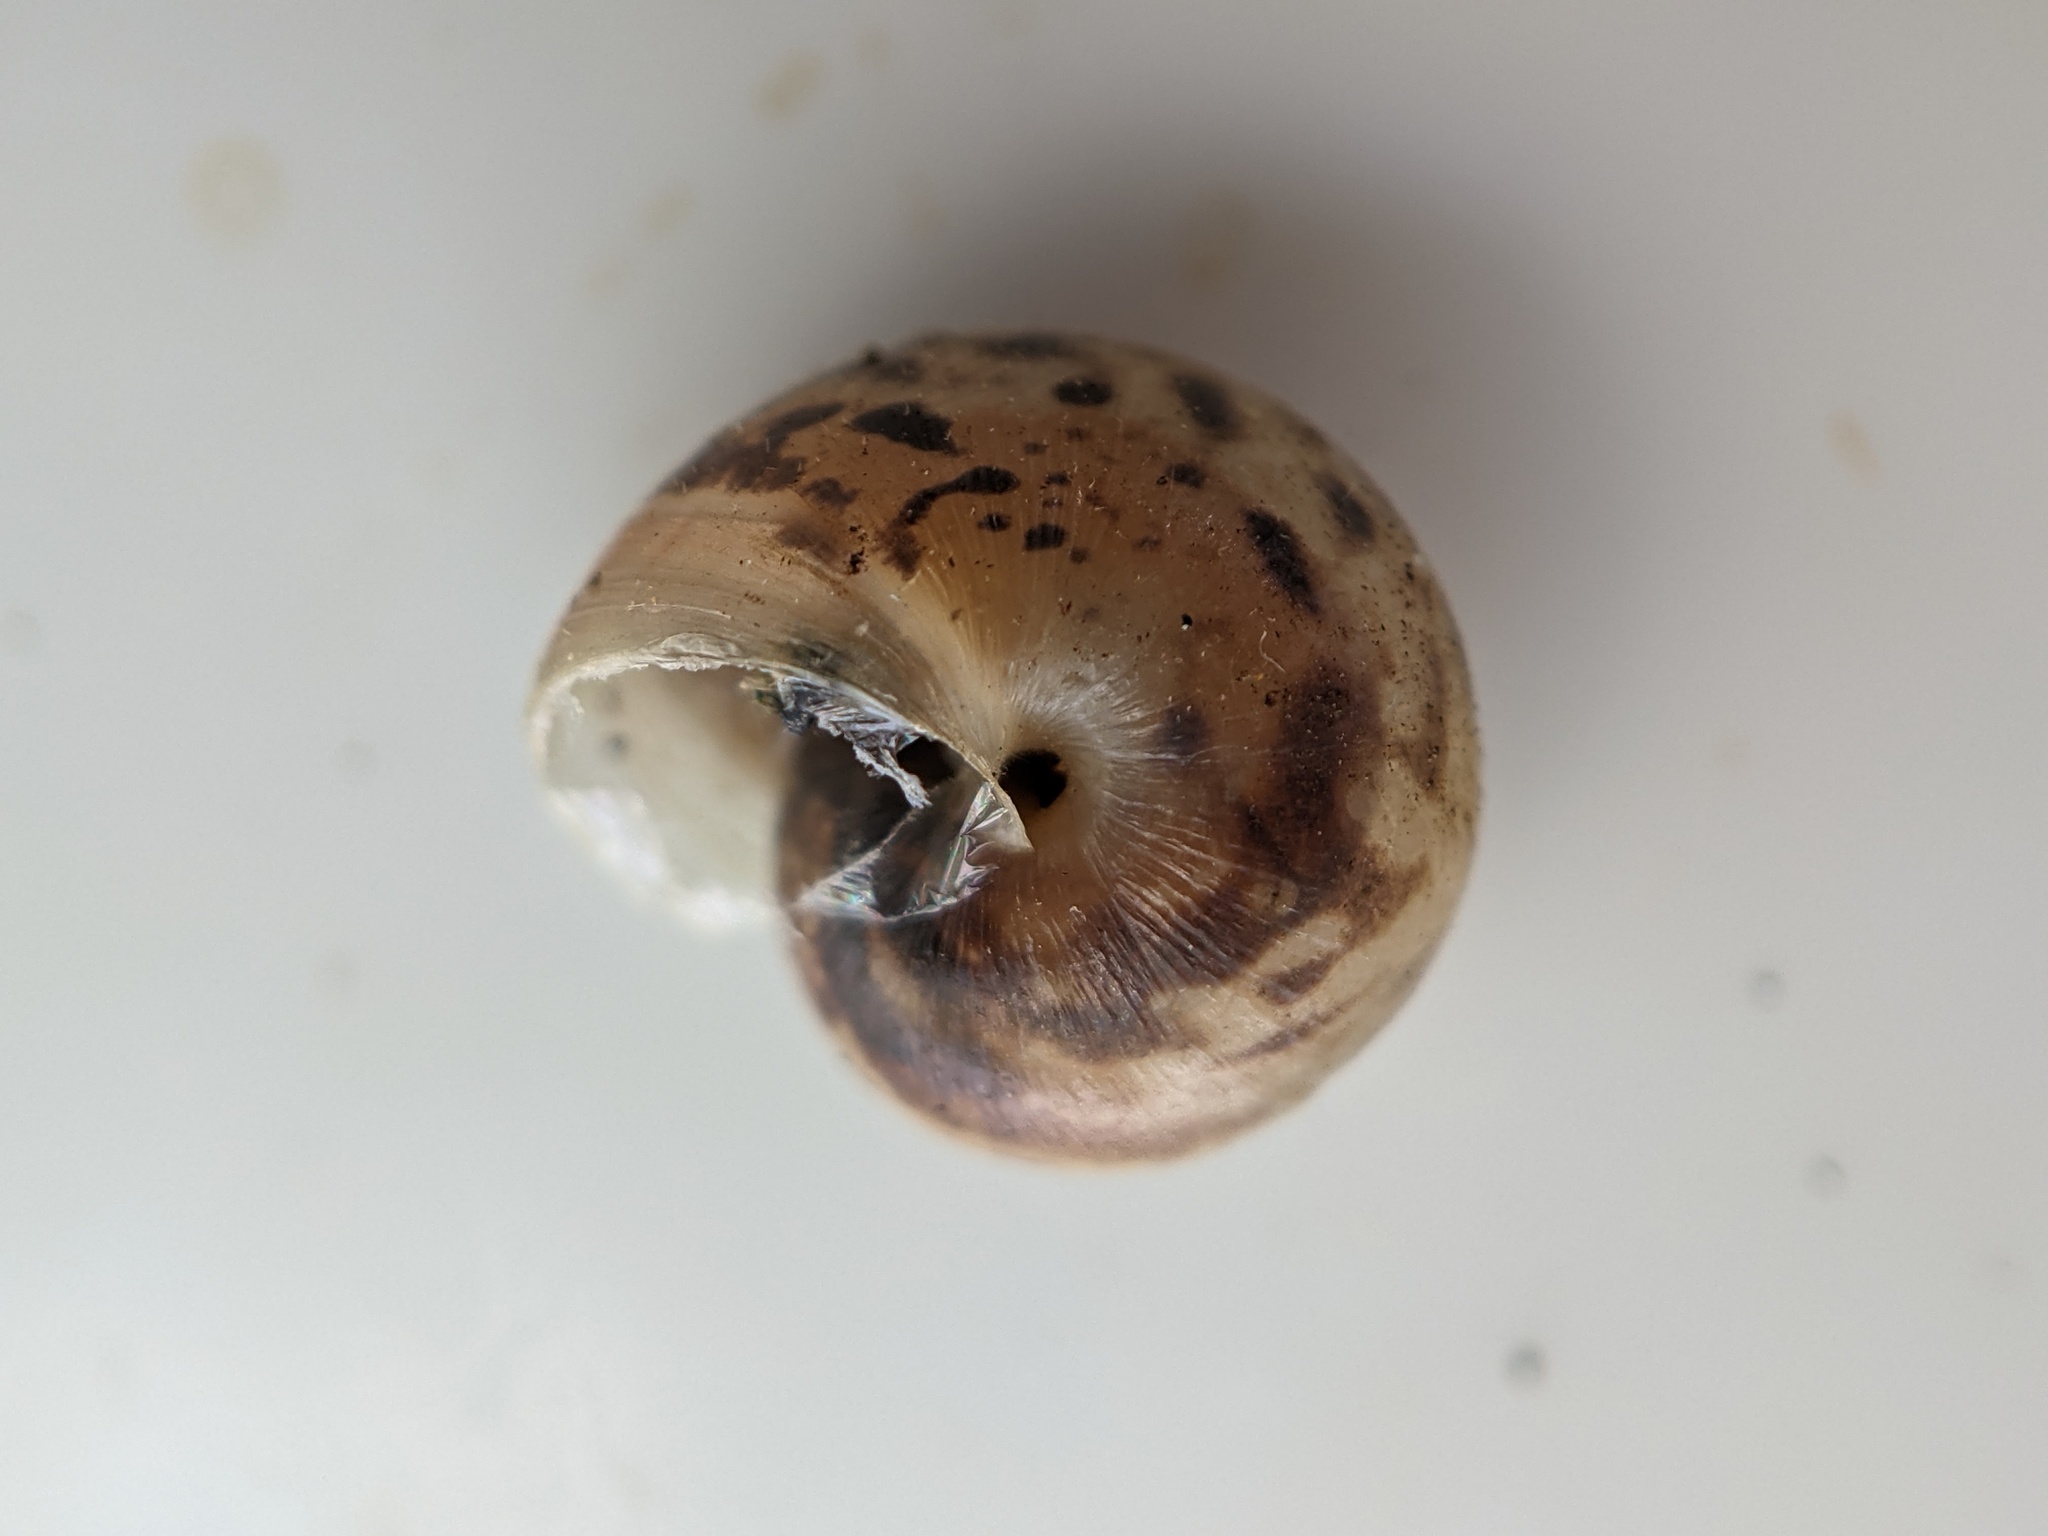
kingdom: Animalia
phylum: Mollusca
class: Gastropoda
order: Stylommatophora
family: Hygromiidae
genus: Monacha
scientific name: Monacha cantiana
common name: Kentish snail
